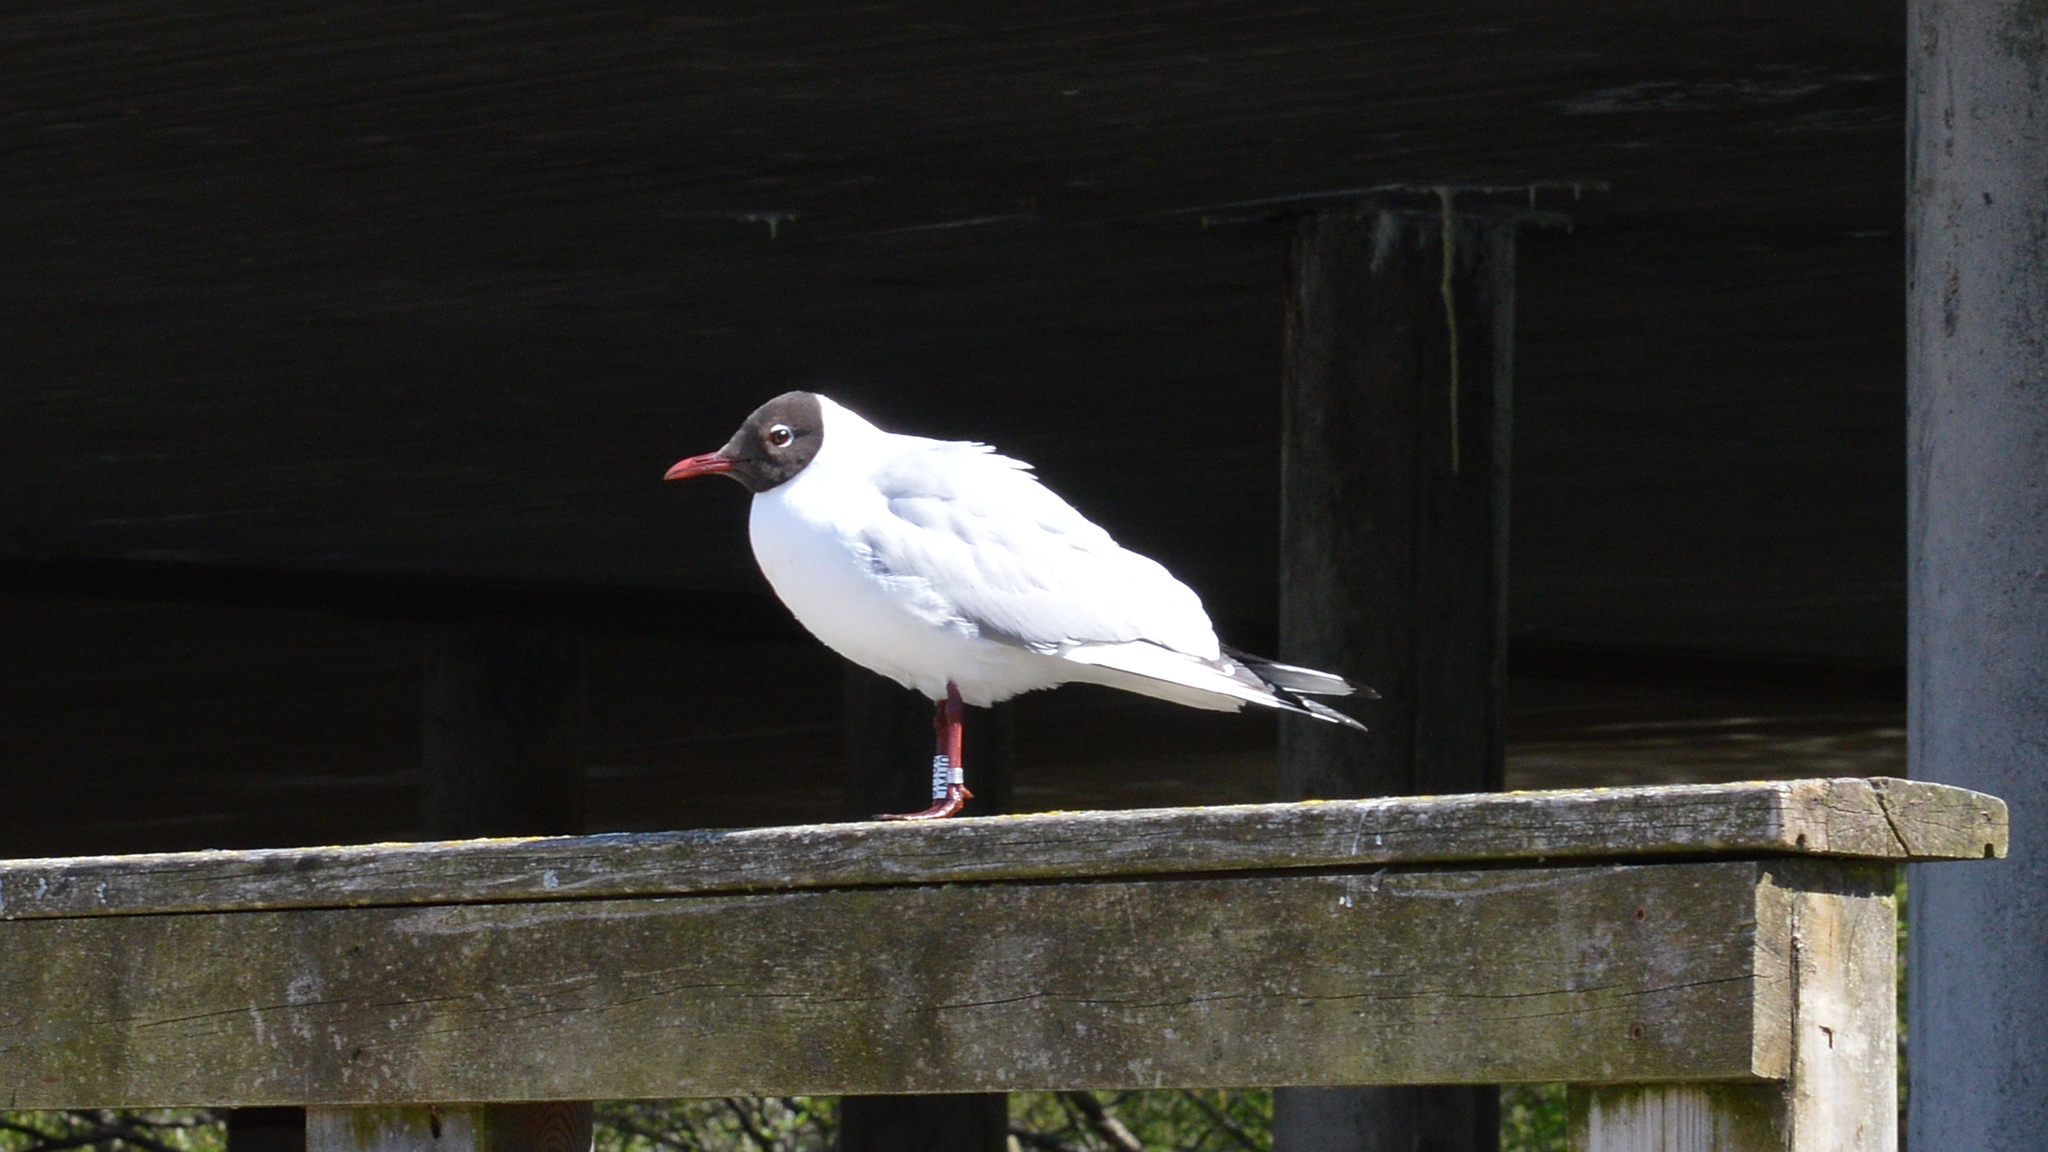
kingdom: Animalia
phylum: Chordata
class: Aves
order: Charadriiformes
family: Laridae
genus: Chroicocephalus
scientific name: Chroicocephalus ridibundus
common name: Black-headed gull
